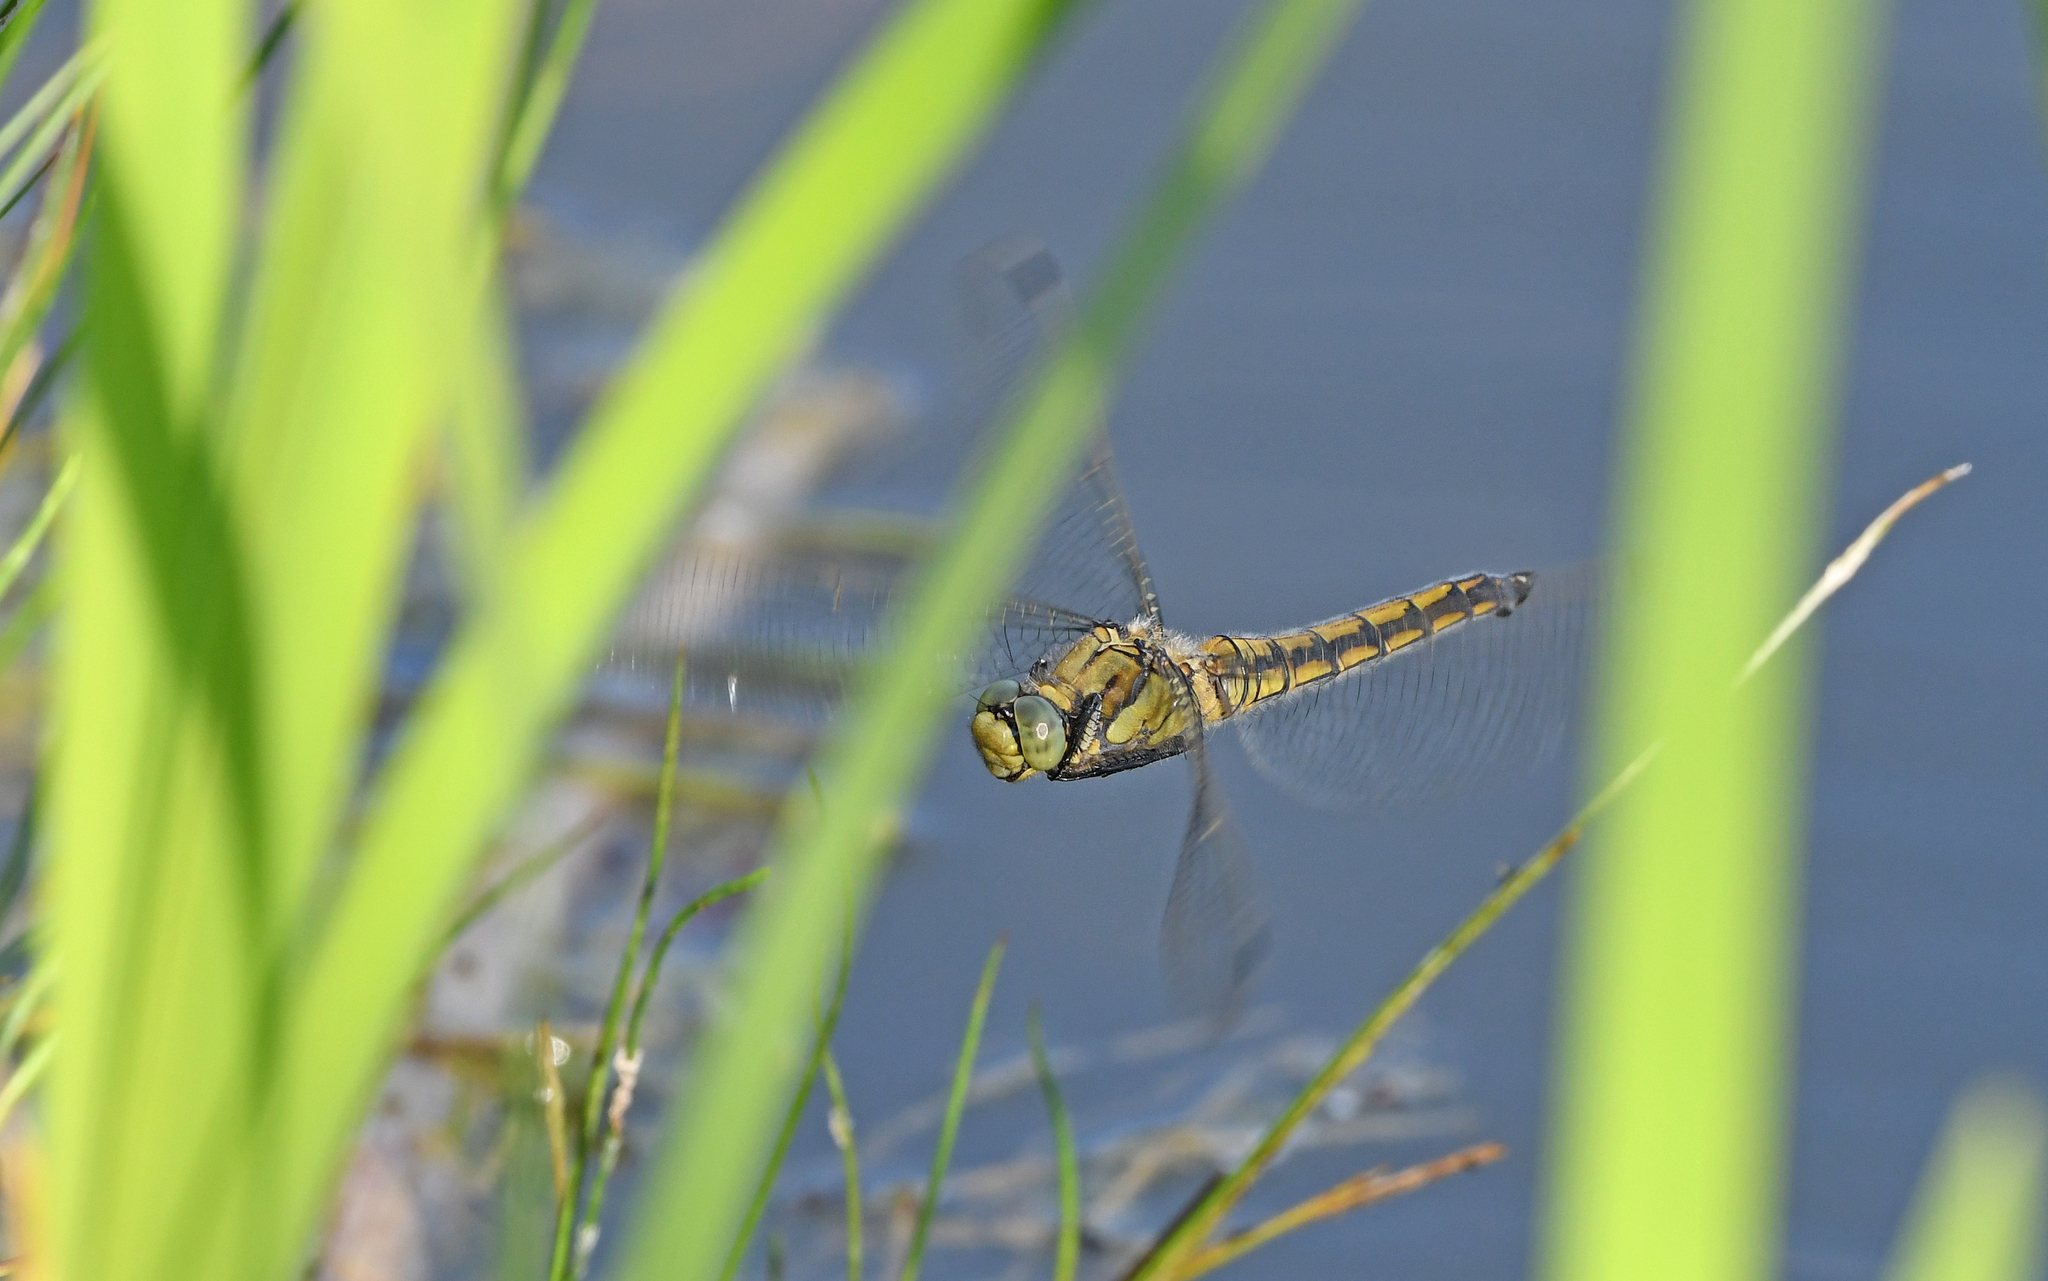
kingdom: Animalia
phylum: Arthropoda
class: Insecta
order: Odonata
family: Libellulidae
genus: Orthetrum
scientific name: Orthetrum cancellatum
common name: Black-tailed skimmer
